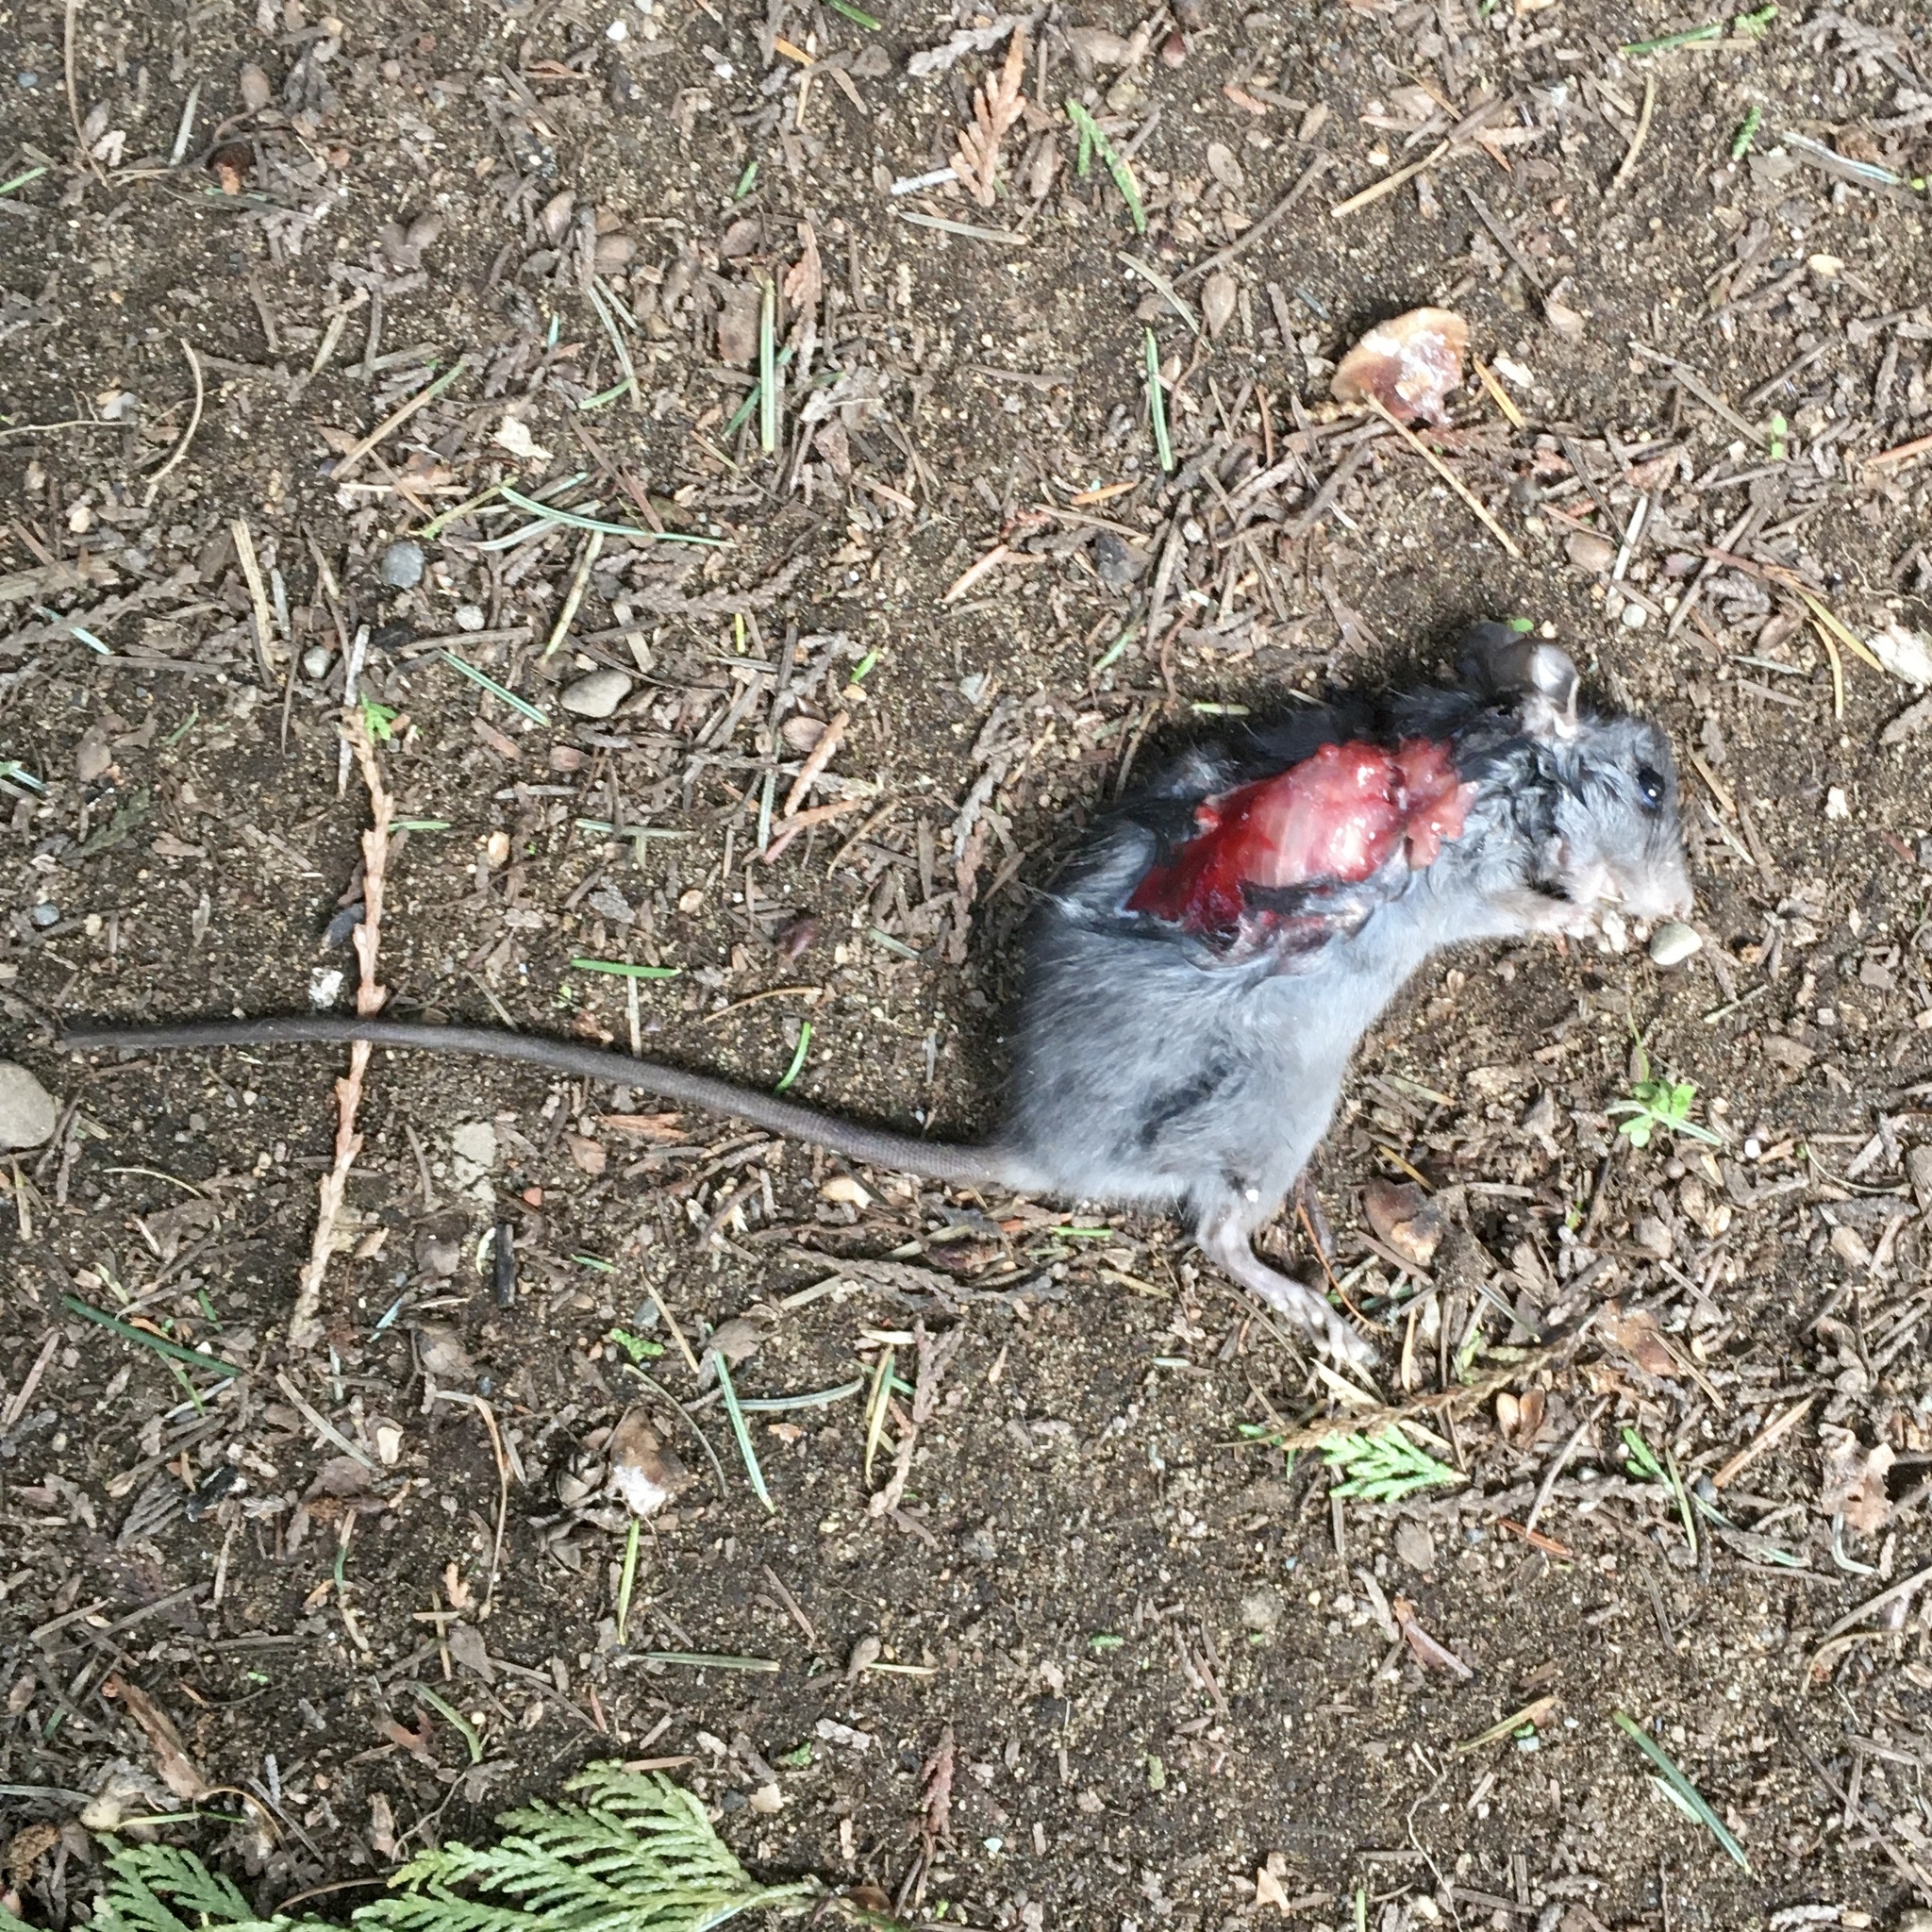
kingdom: Animalia
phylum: Chordata
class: Mammalia
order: Rodentia
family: Muridae
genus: Rattus
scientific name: Rattus rattus
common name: Black rat
